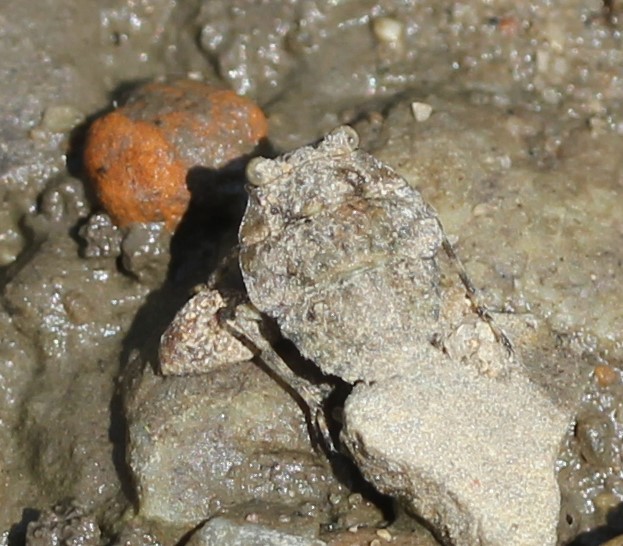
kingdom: Animalia
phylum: Arthropoda
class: Insecta
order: Hemiptera
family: Gelastocoridae
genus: Gelastocoris
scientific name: Gelastocoris oculatus
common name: Toad bug
